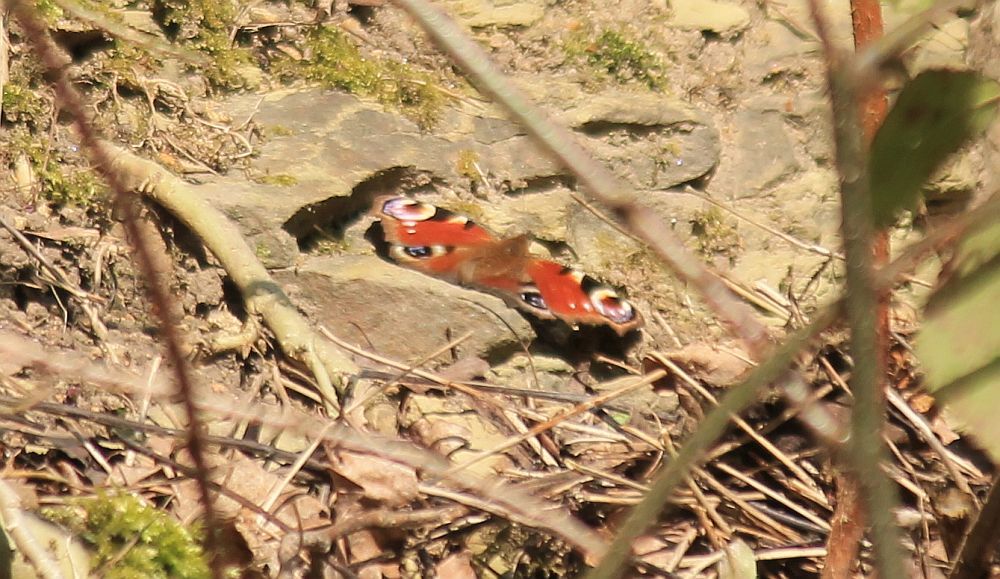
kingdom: Animalia
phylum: Arthropoda
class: Insecta
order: Lepidoptera
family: Nymphalidae
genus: Aglais
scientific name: Aglais io
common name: Peacock
